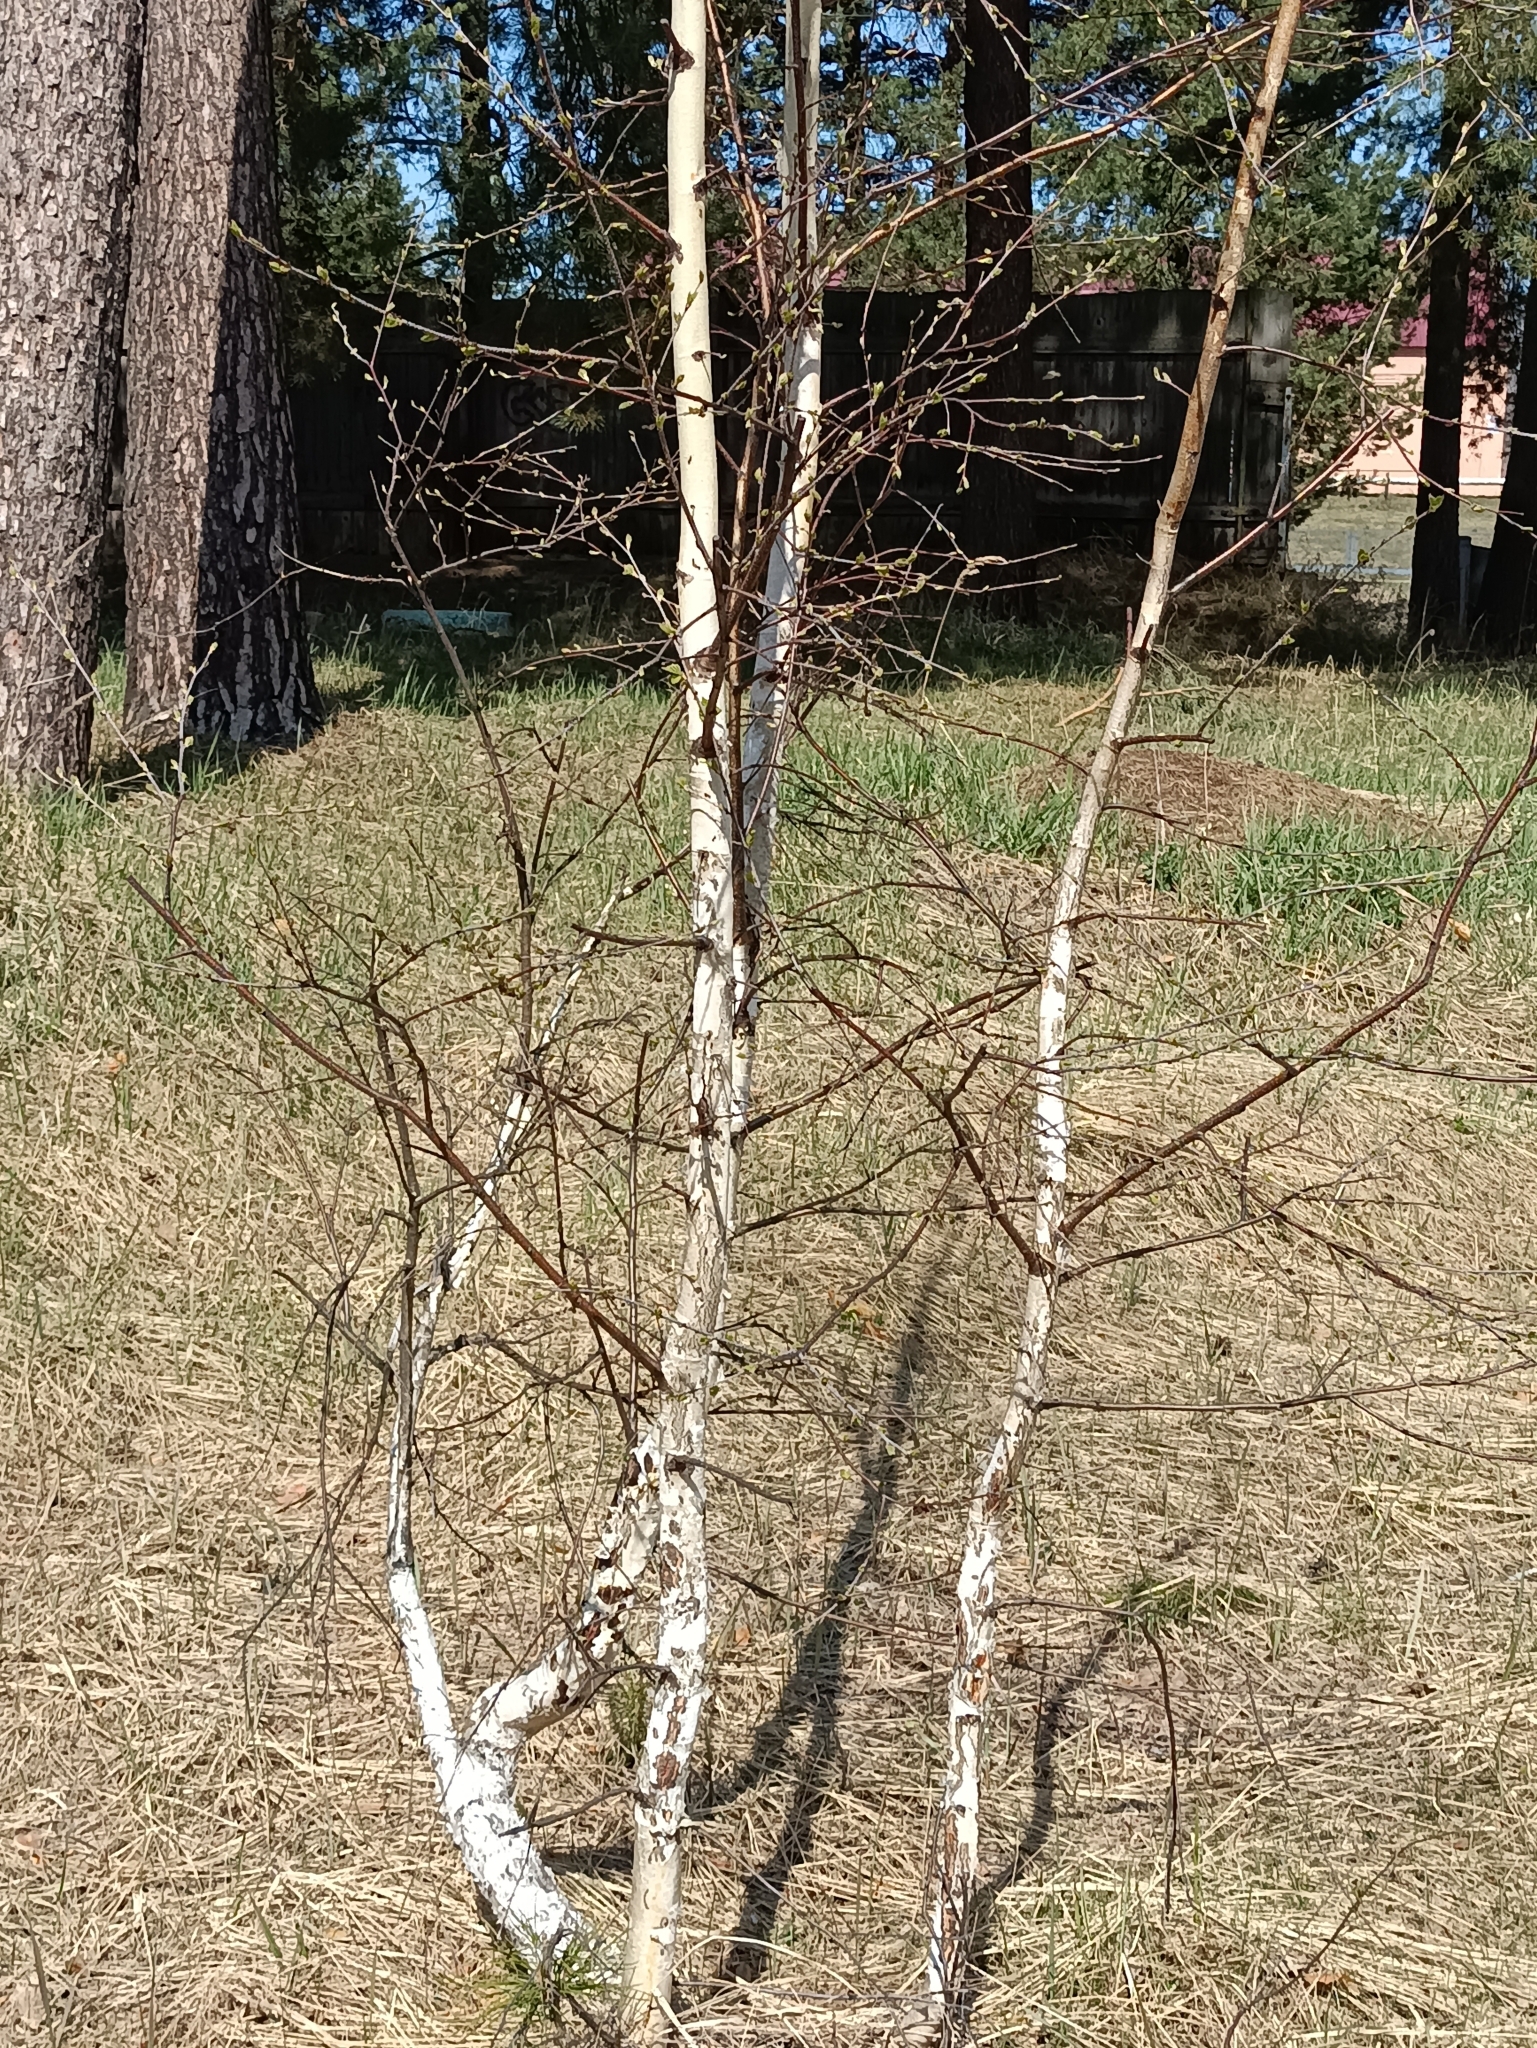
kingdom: Plantae
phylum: Tracheophyta
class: Magnoliopsida
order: Fagales
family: Betulaceae
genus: Betula
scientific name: Betula pendula
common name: Silver birch
